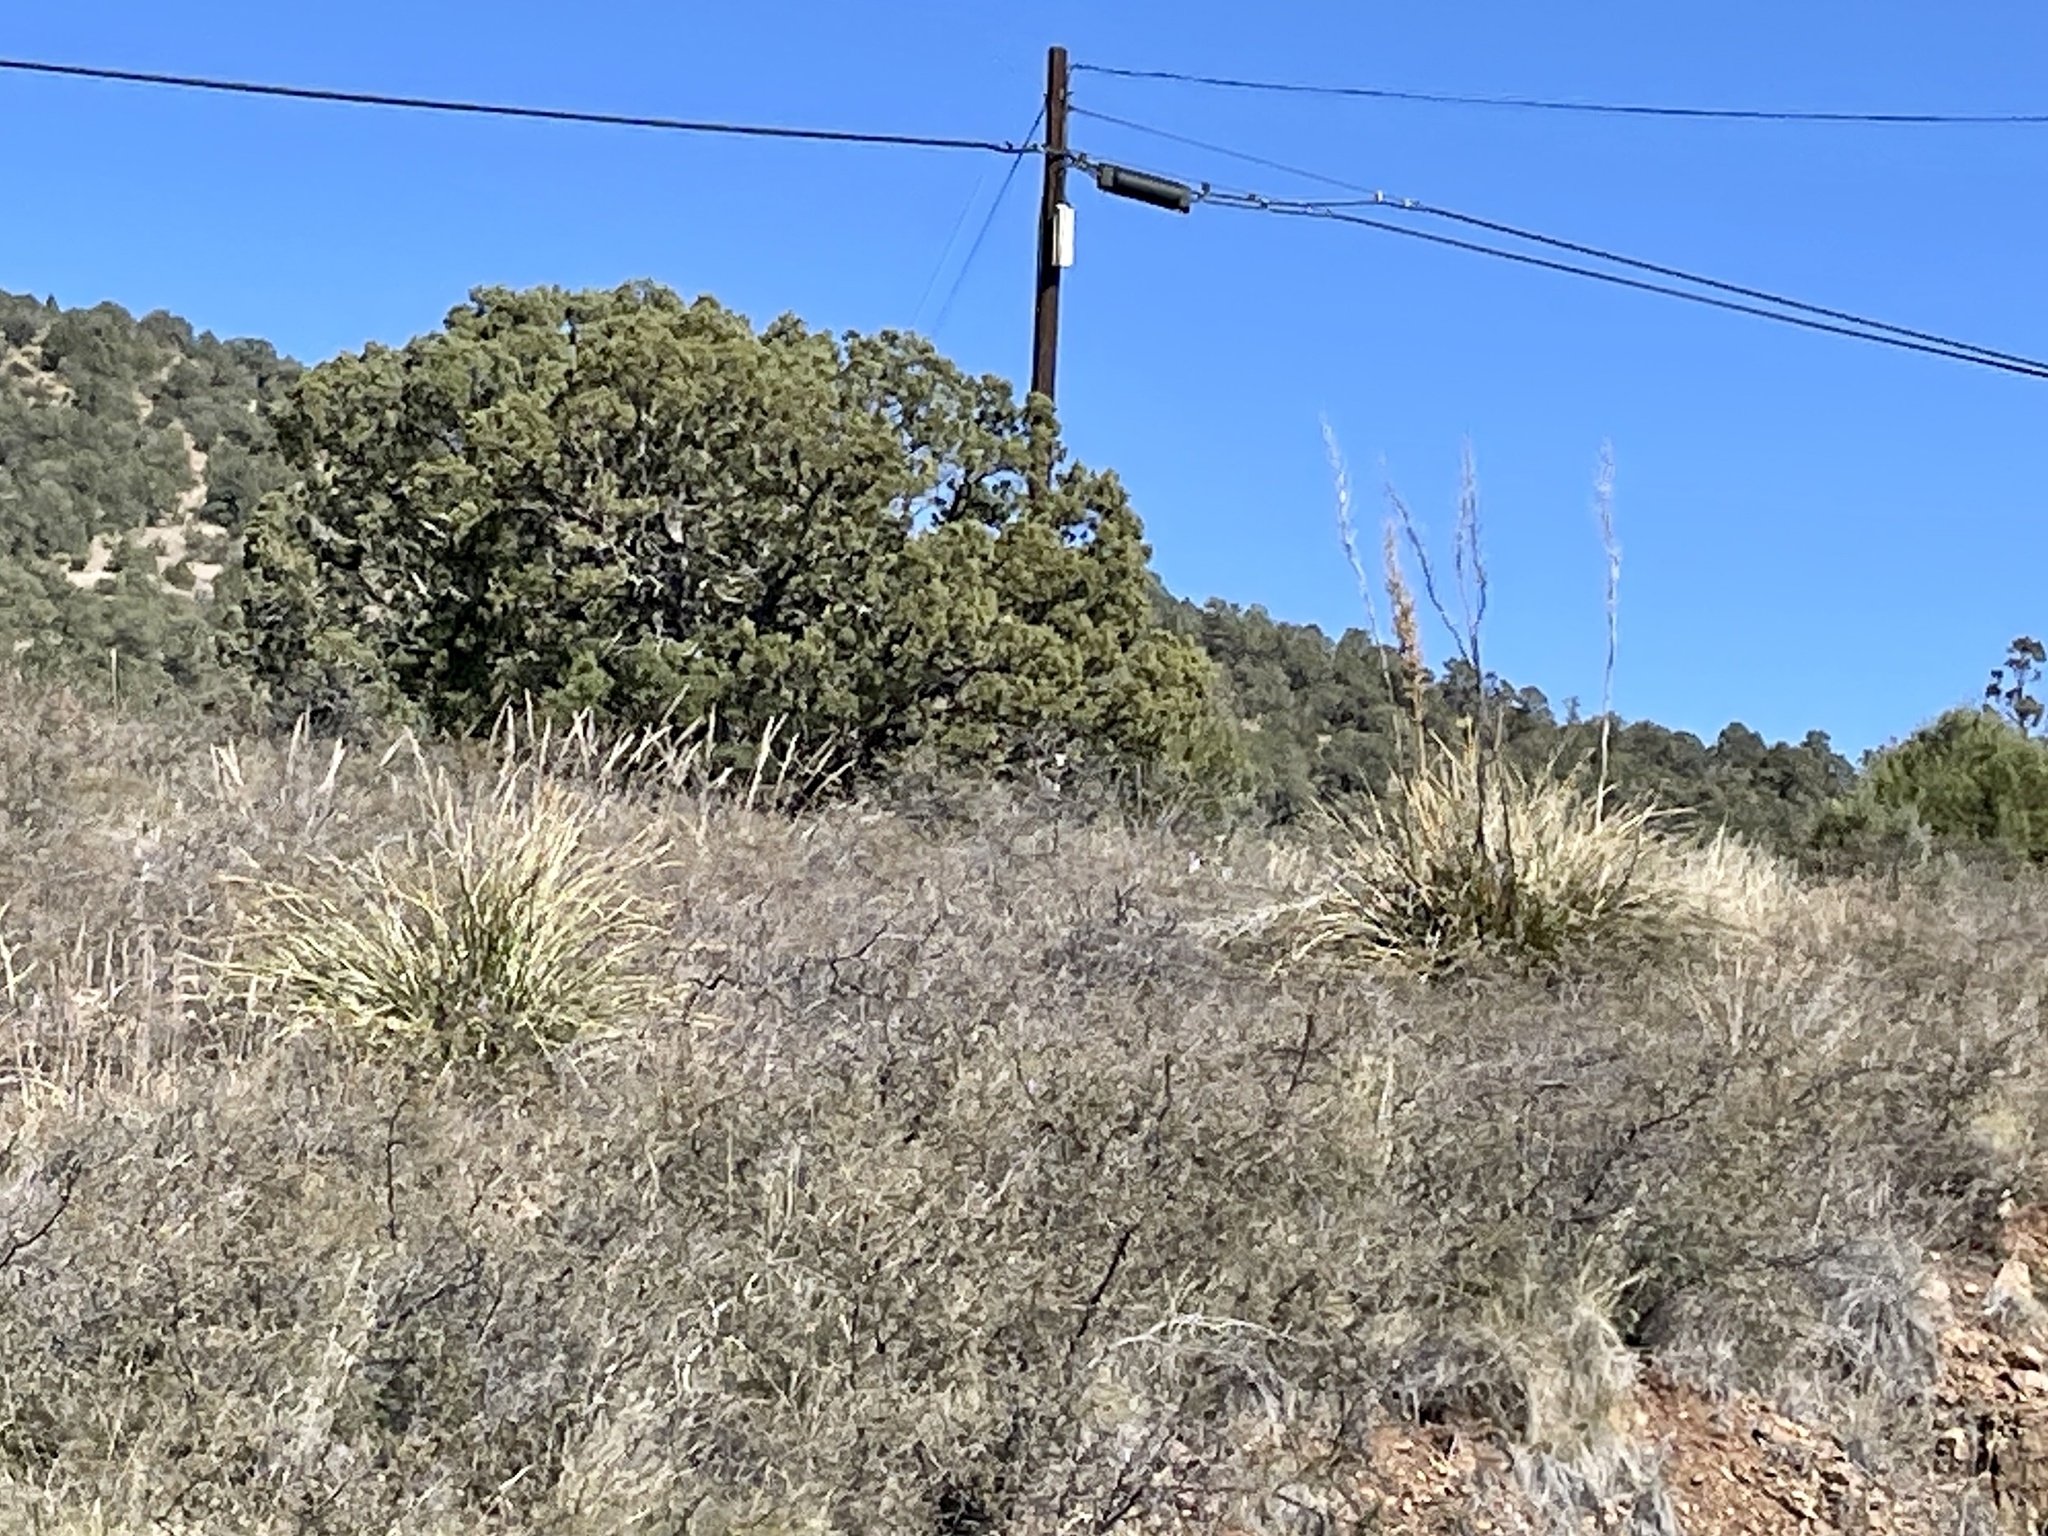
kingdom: Plantae
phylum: Tracheophyta
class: Liliopsida
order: Asparagales
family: Asparagaceae
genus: Dasylirion
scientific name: Dasylirion wheeleri
